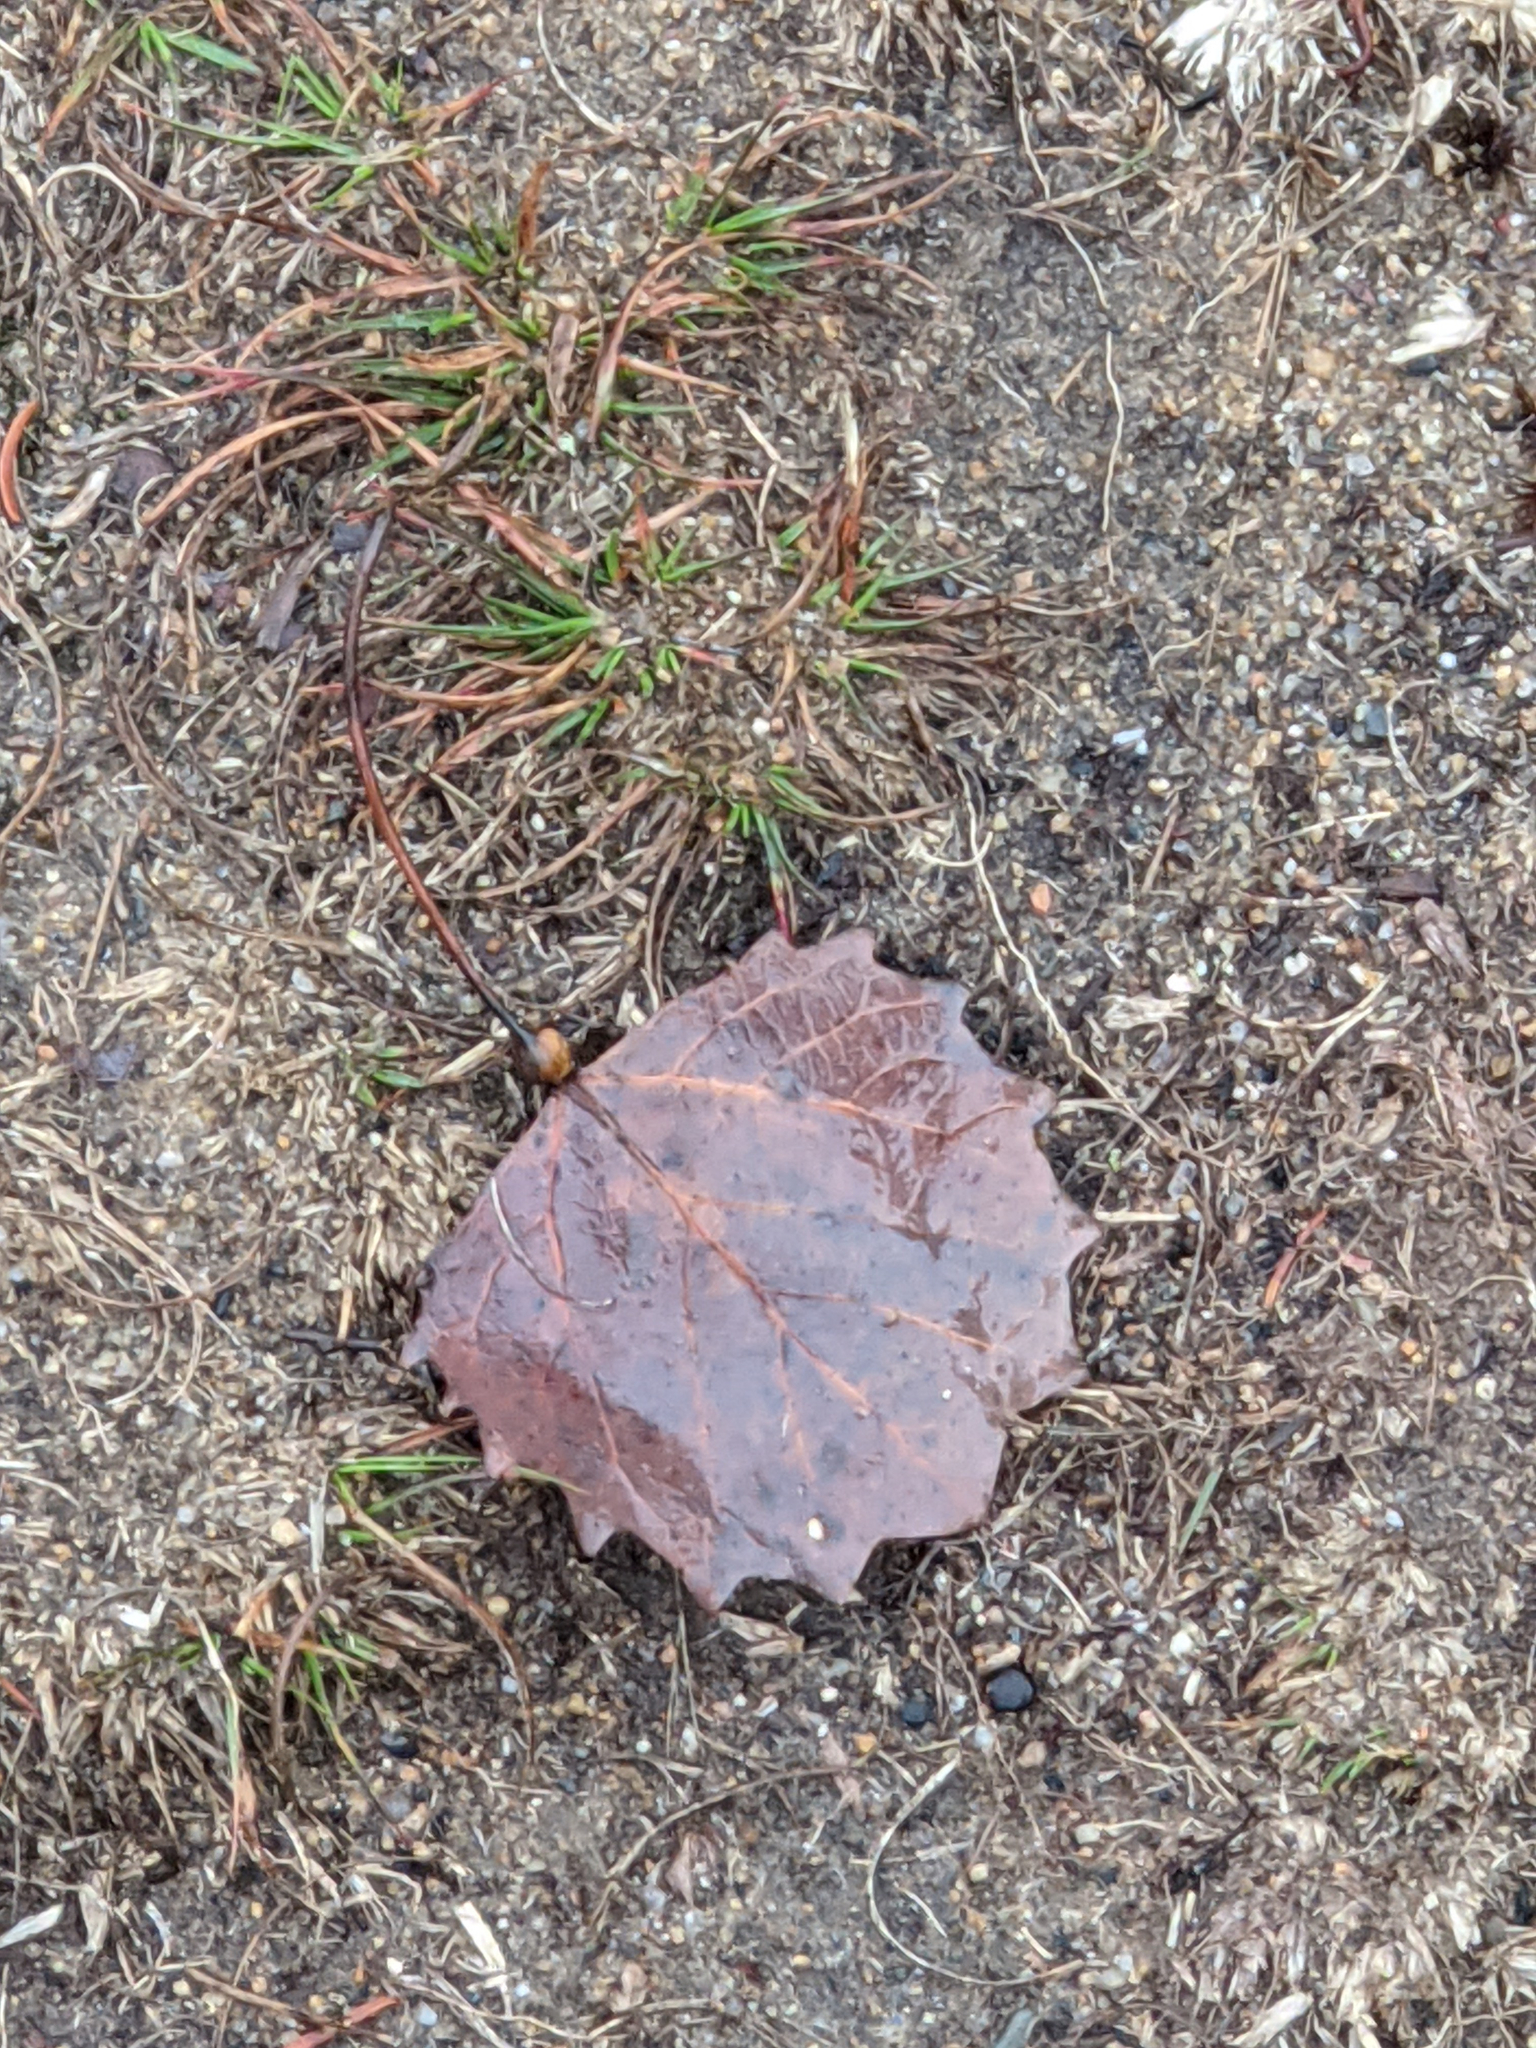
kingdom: Plantae
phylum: Tracheophyta
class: Magnoliopsida
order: Malpighiales
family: Salicaceae
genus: Populus
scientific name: Populus grandidentata
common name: Bigtooth aspen
